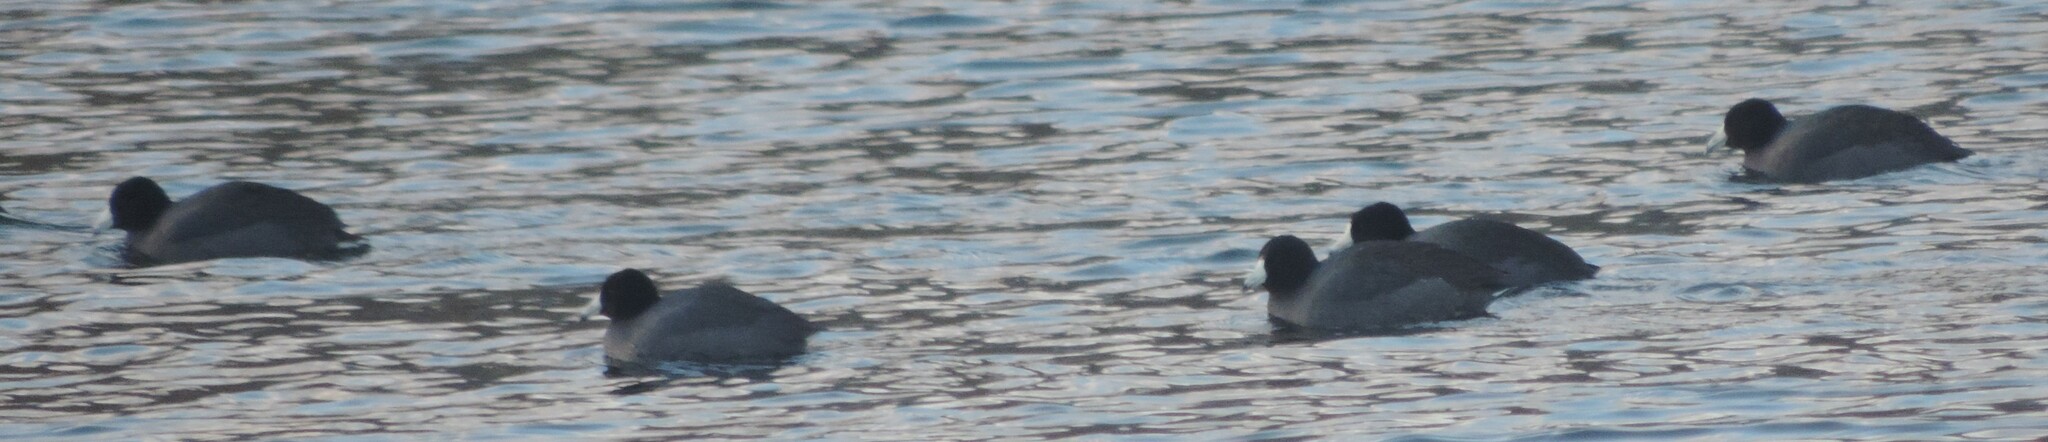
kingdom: Animalia
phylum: Chordata
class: Aves
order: Gruiformes
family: Rallidae
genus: Fulica
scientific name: Fulica americana
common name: American coot
